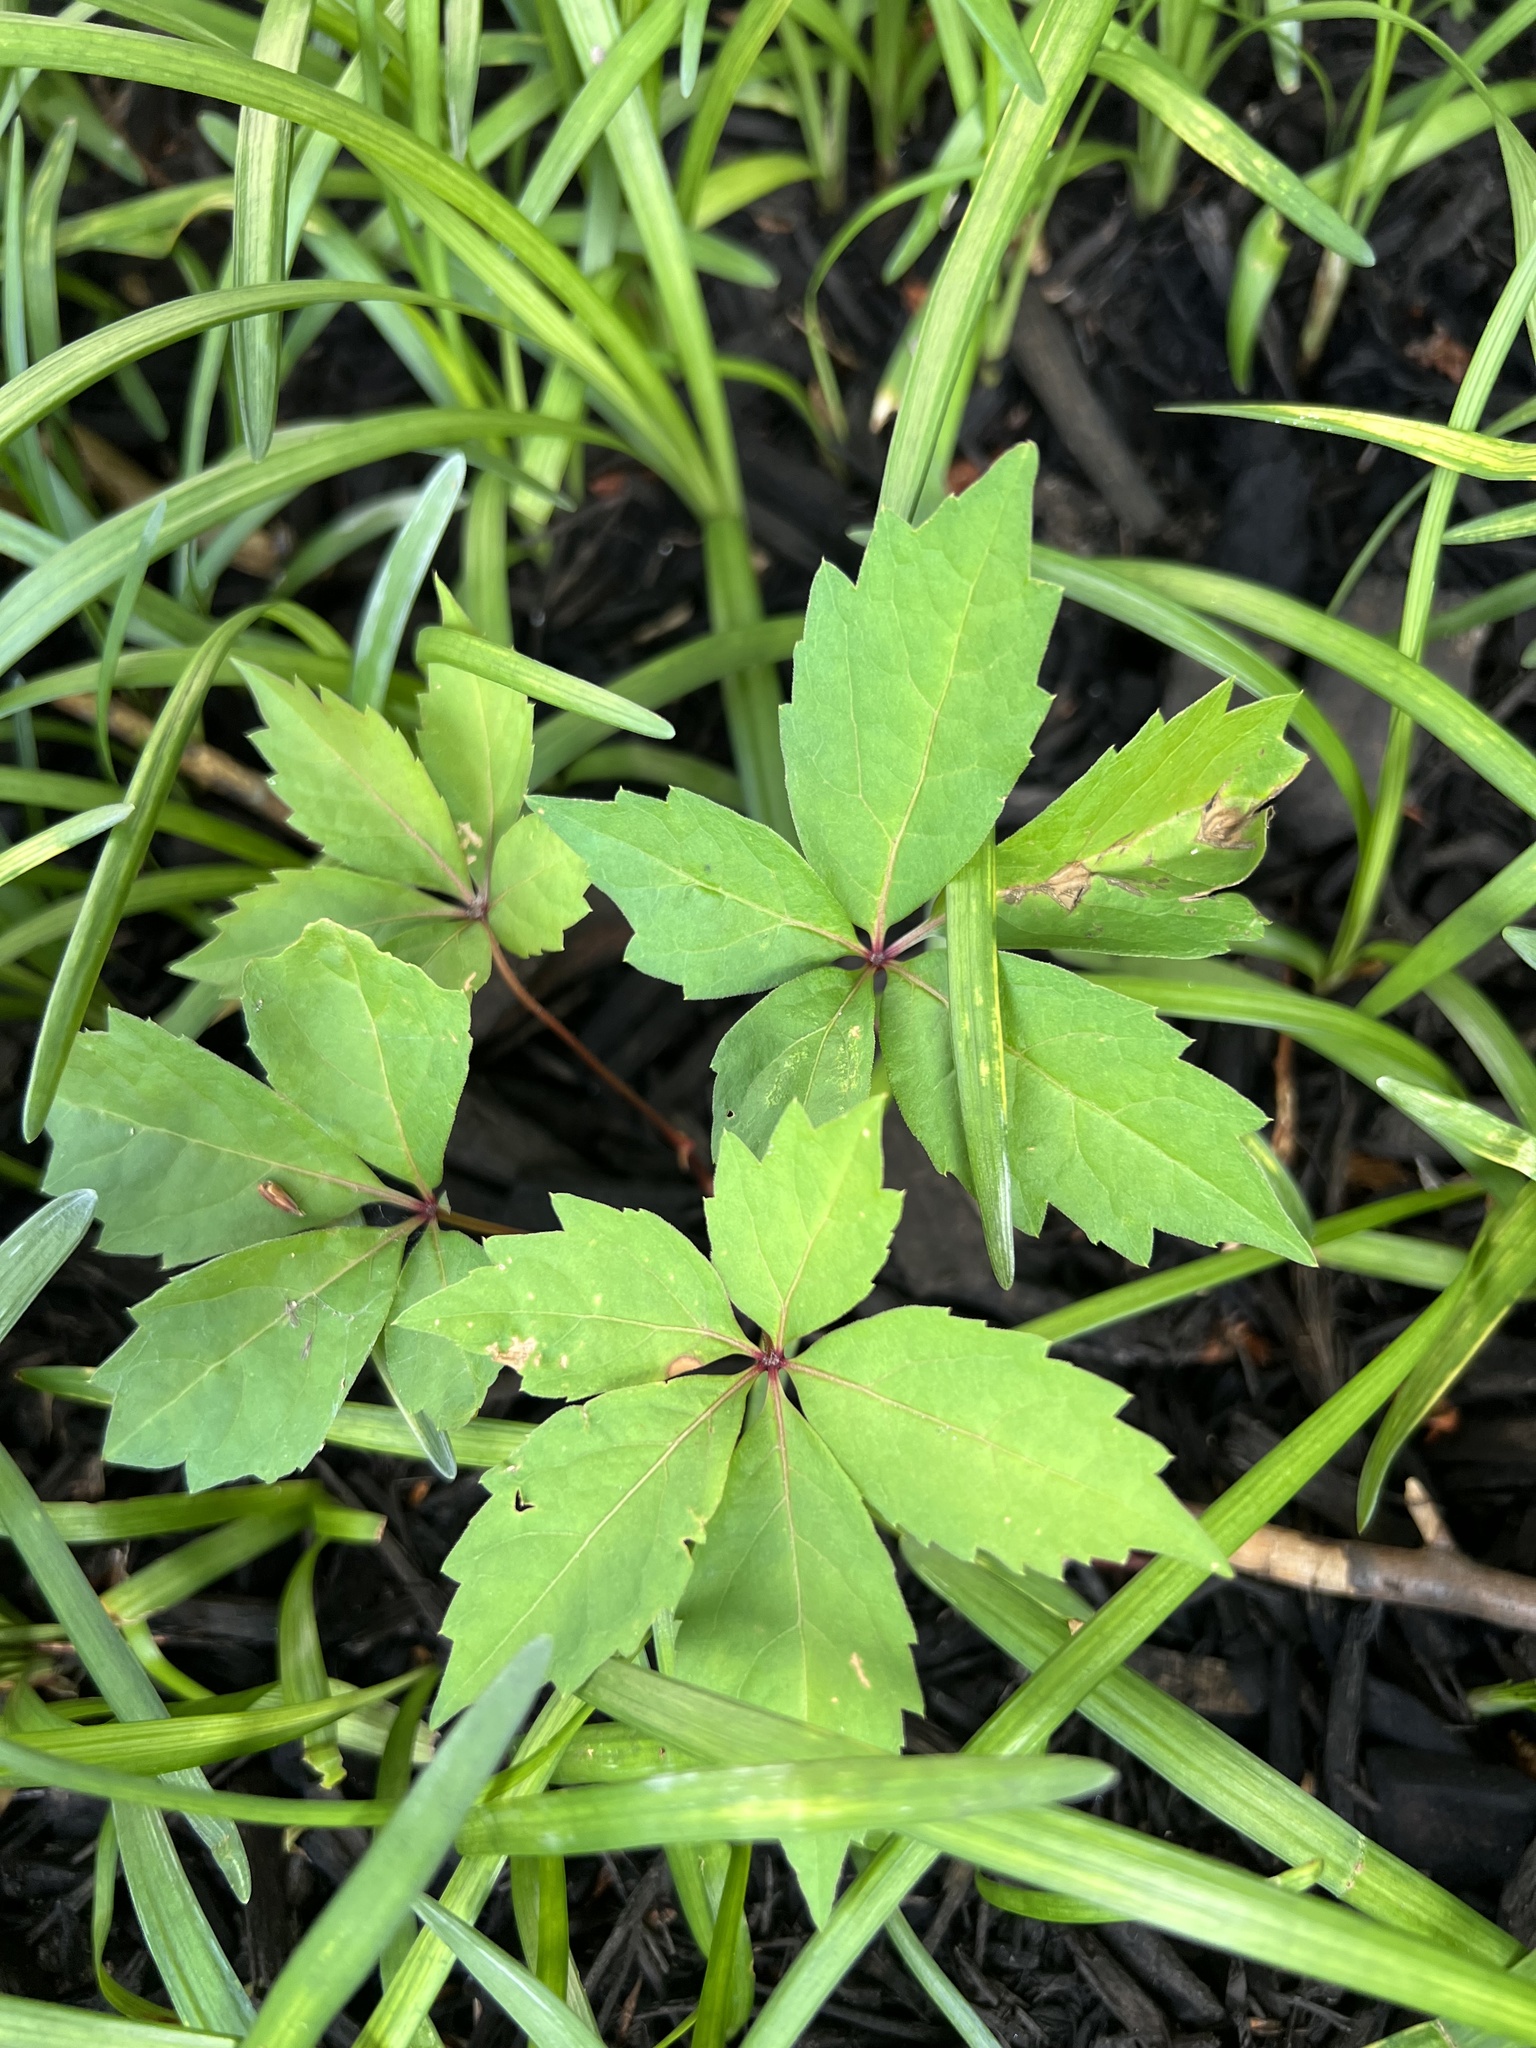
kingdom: Plantae
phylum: Tracheophyta
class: Magnoliopsida
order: Vitales
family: Vitaceae
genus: Parthenocissus
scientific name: Parthenocissus quinquefolia
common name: Virginia-creeper
